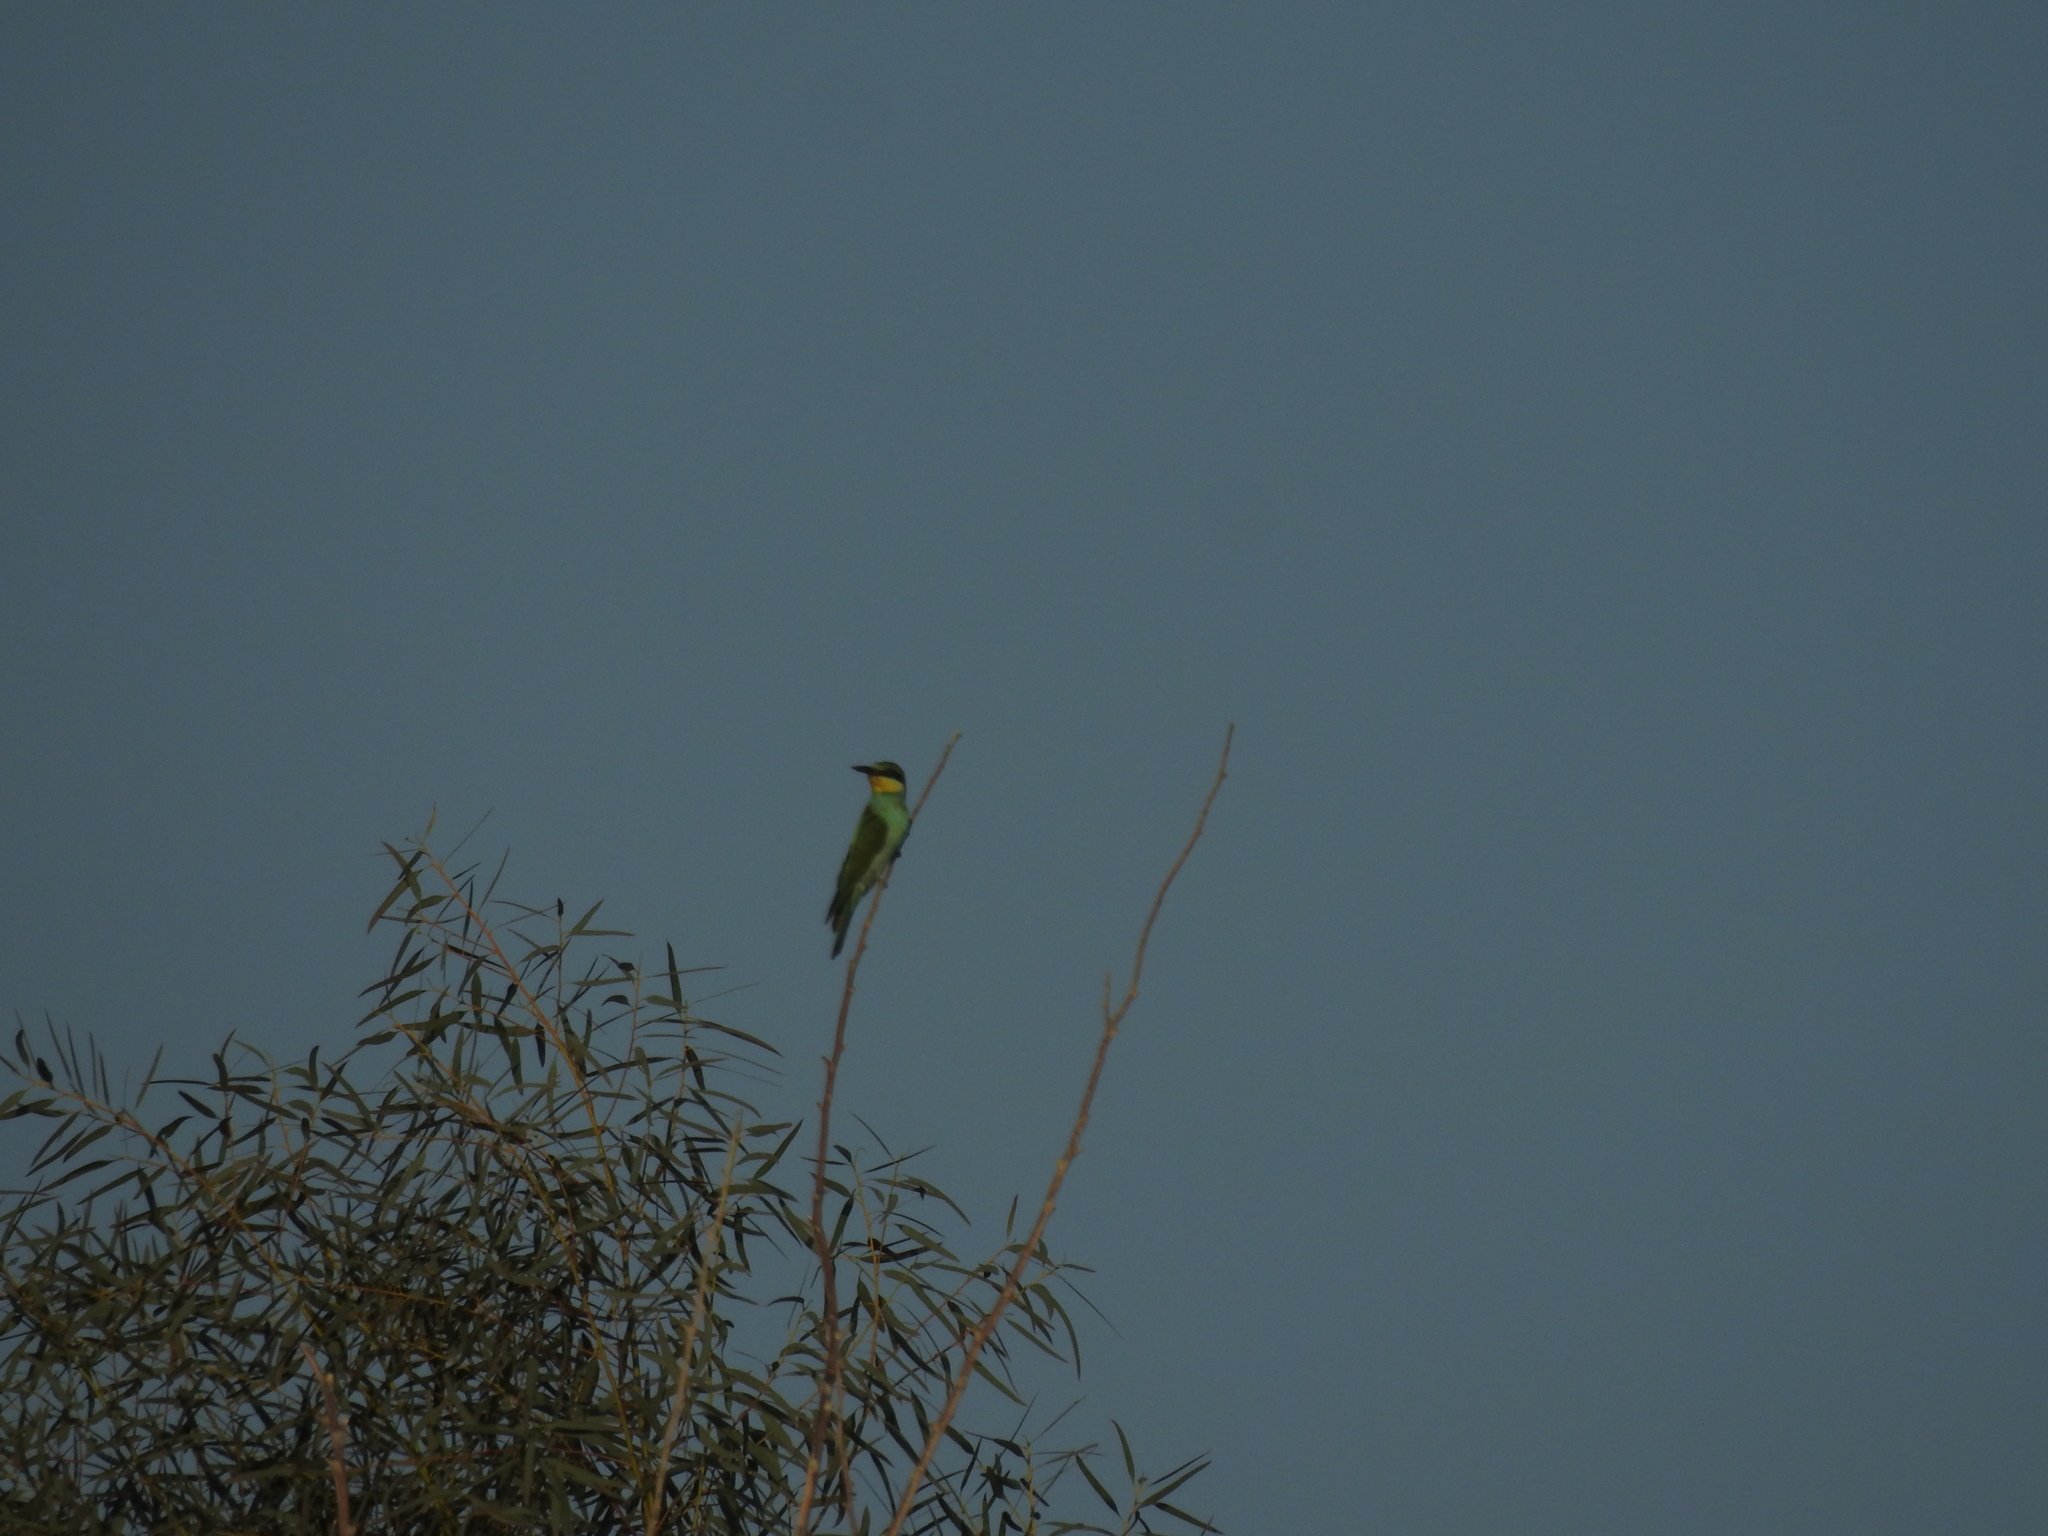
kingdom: Animalia
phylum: Chordata
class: Aves
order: Coraciiformes
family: Meropidae
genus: Merops
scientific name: Merops apiaster
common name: European bee-eater
